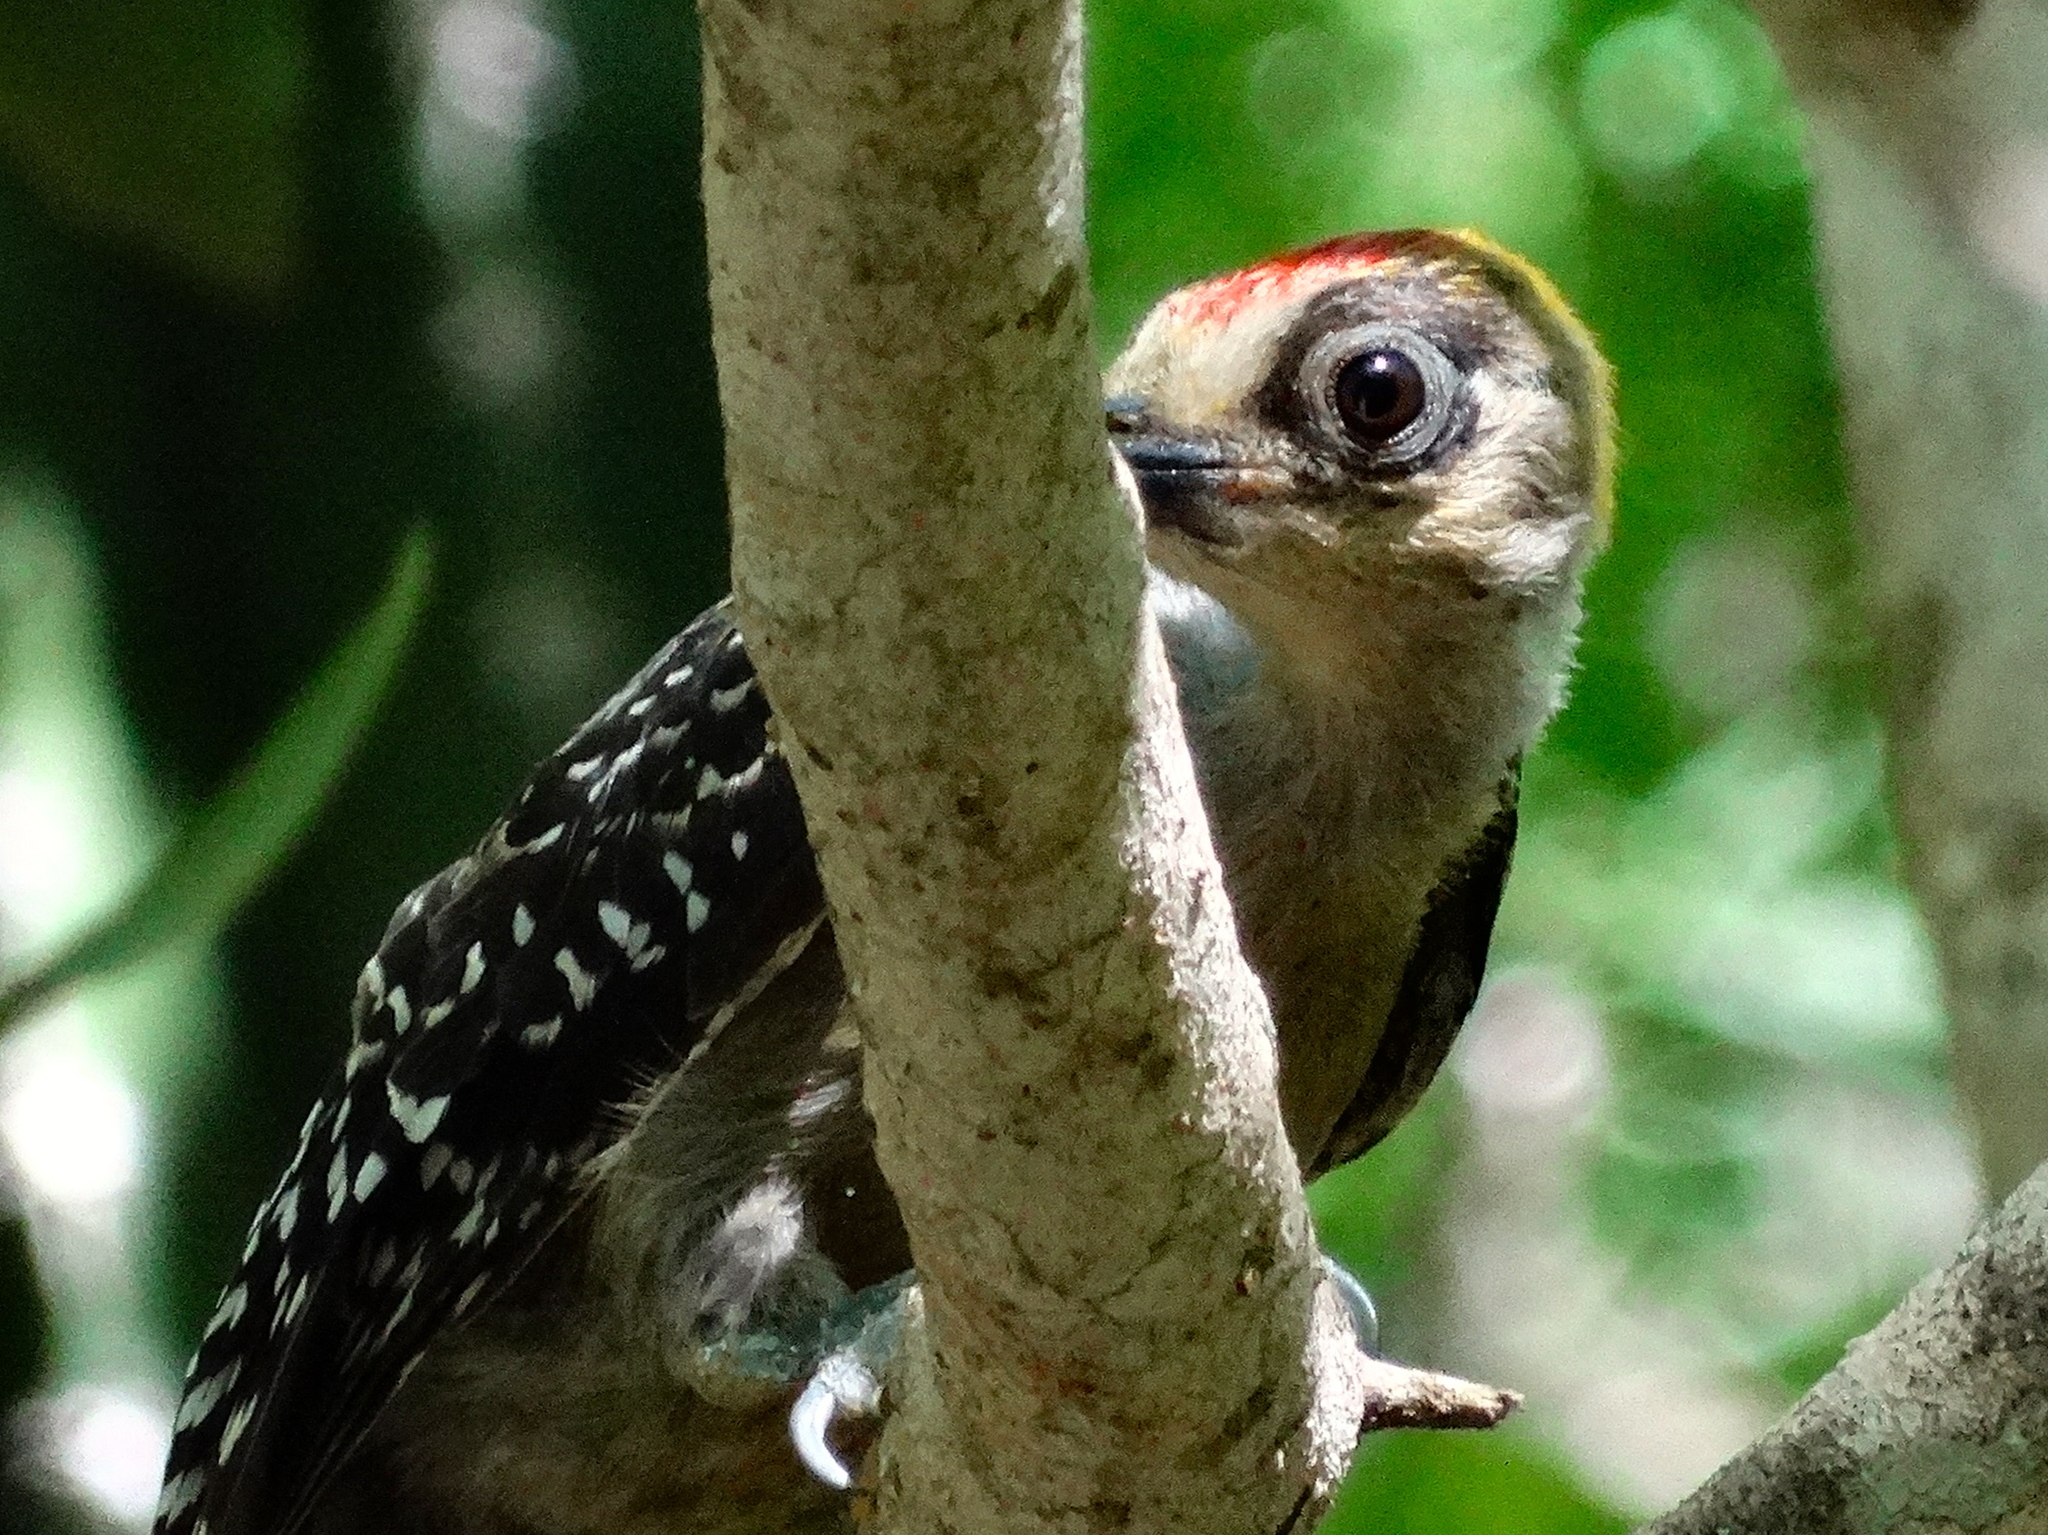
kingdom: Animalia
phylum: Chordata
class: Aves
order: Piciformes
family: Picidae
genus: Melanerpes
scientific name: Melanerpes chrysogenys
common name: Golden-cheeked woodpecker
